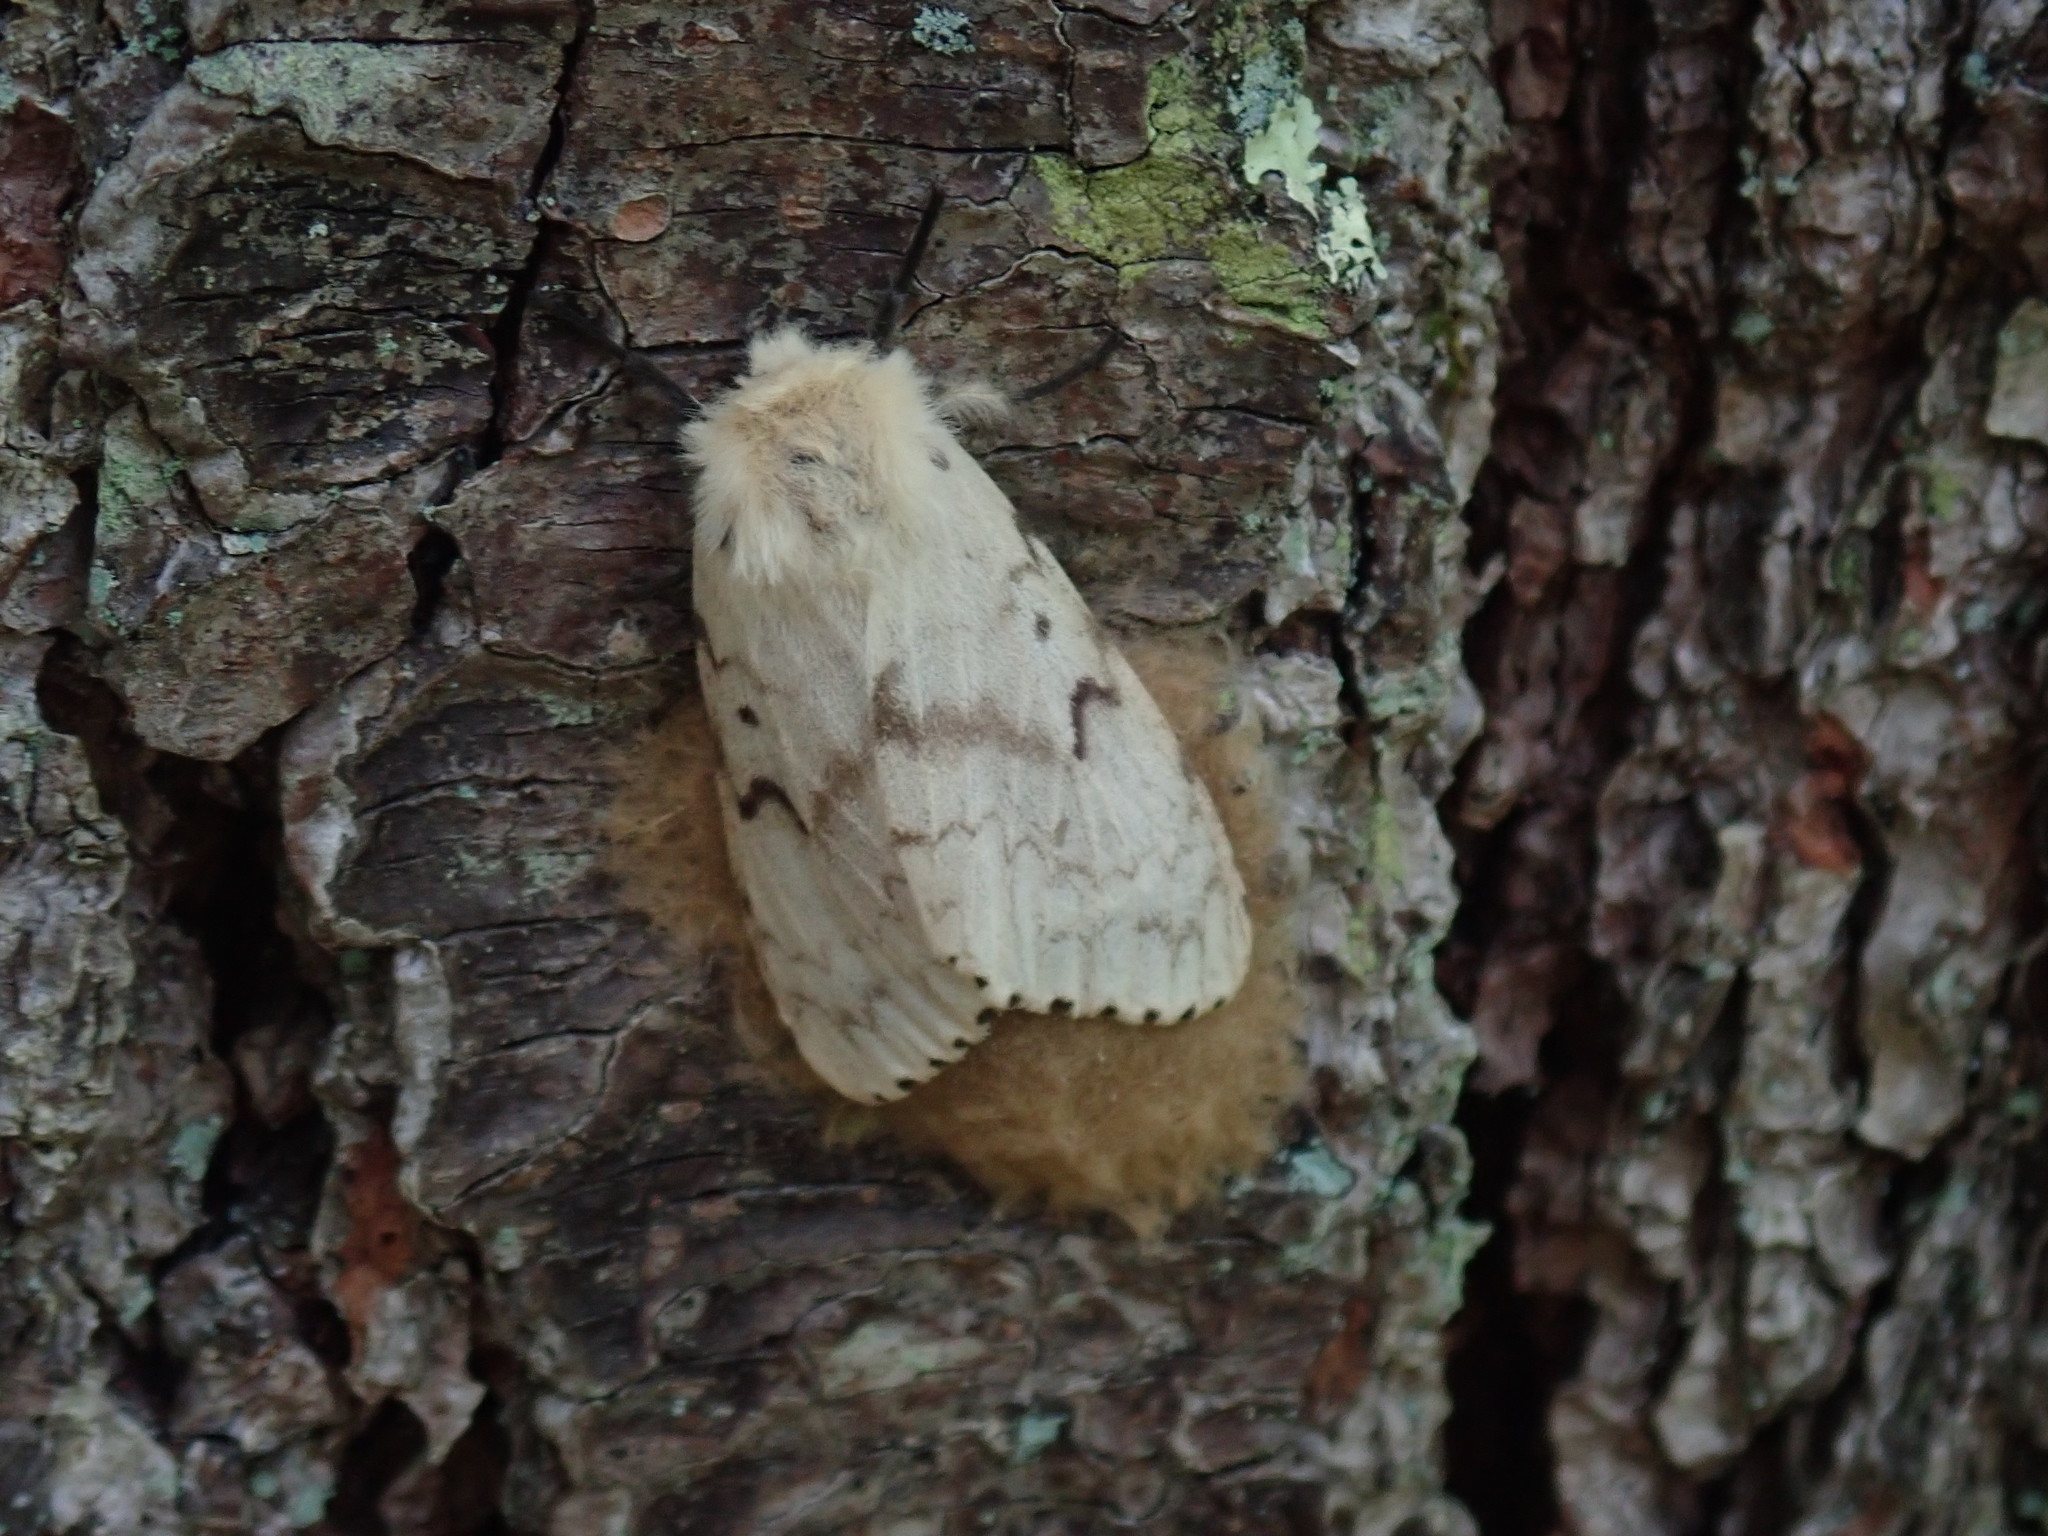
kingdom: Animalia
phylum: Arthropoda
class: Insecta
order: Lepidoptera
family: Erebidae
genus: Lymantria
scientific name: Lymantria dispar
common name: Gypsy moth
